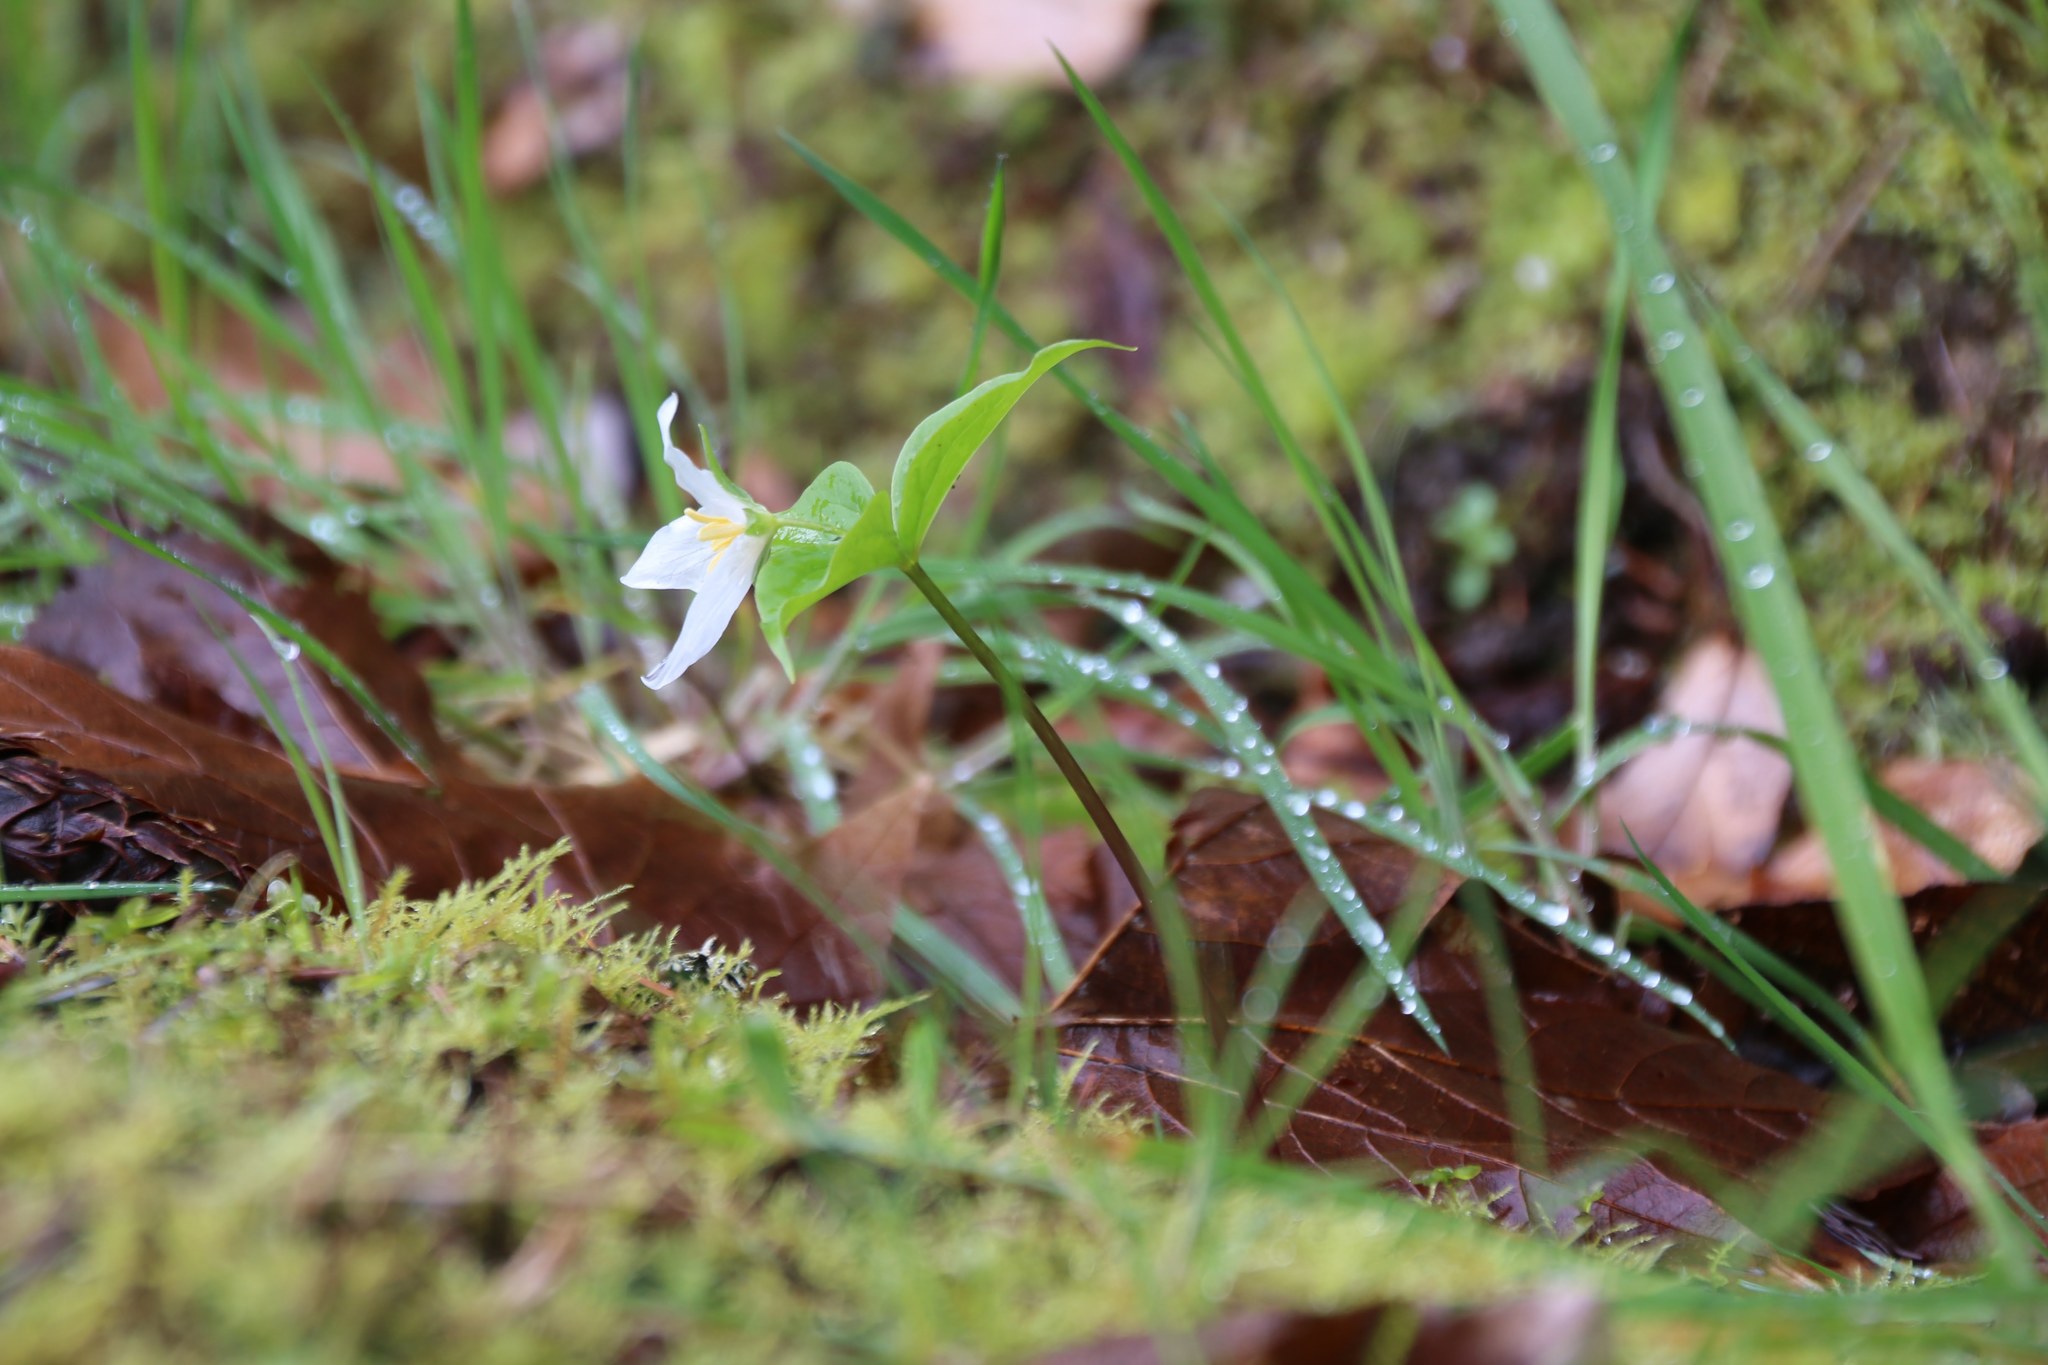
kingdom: Plantae
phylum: Tracheophyta
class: Liliopsida
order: Liliales
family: Melanthiaceae
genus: Trillium
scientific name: Trillium ovatum
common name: Pacific trillium
